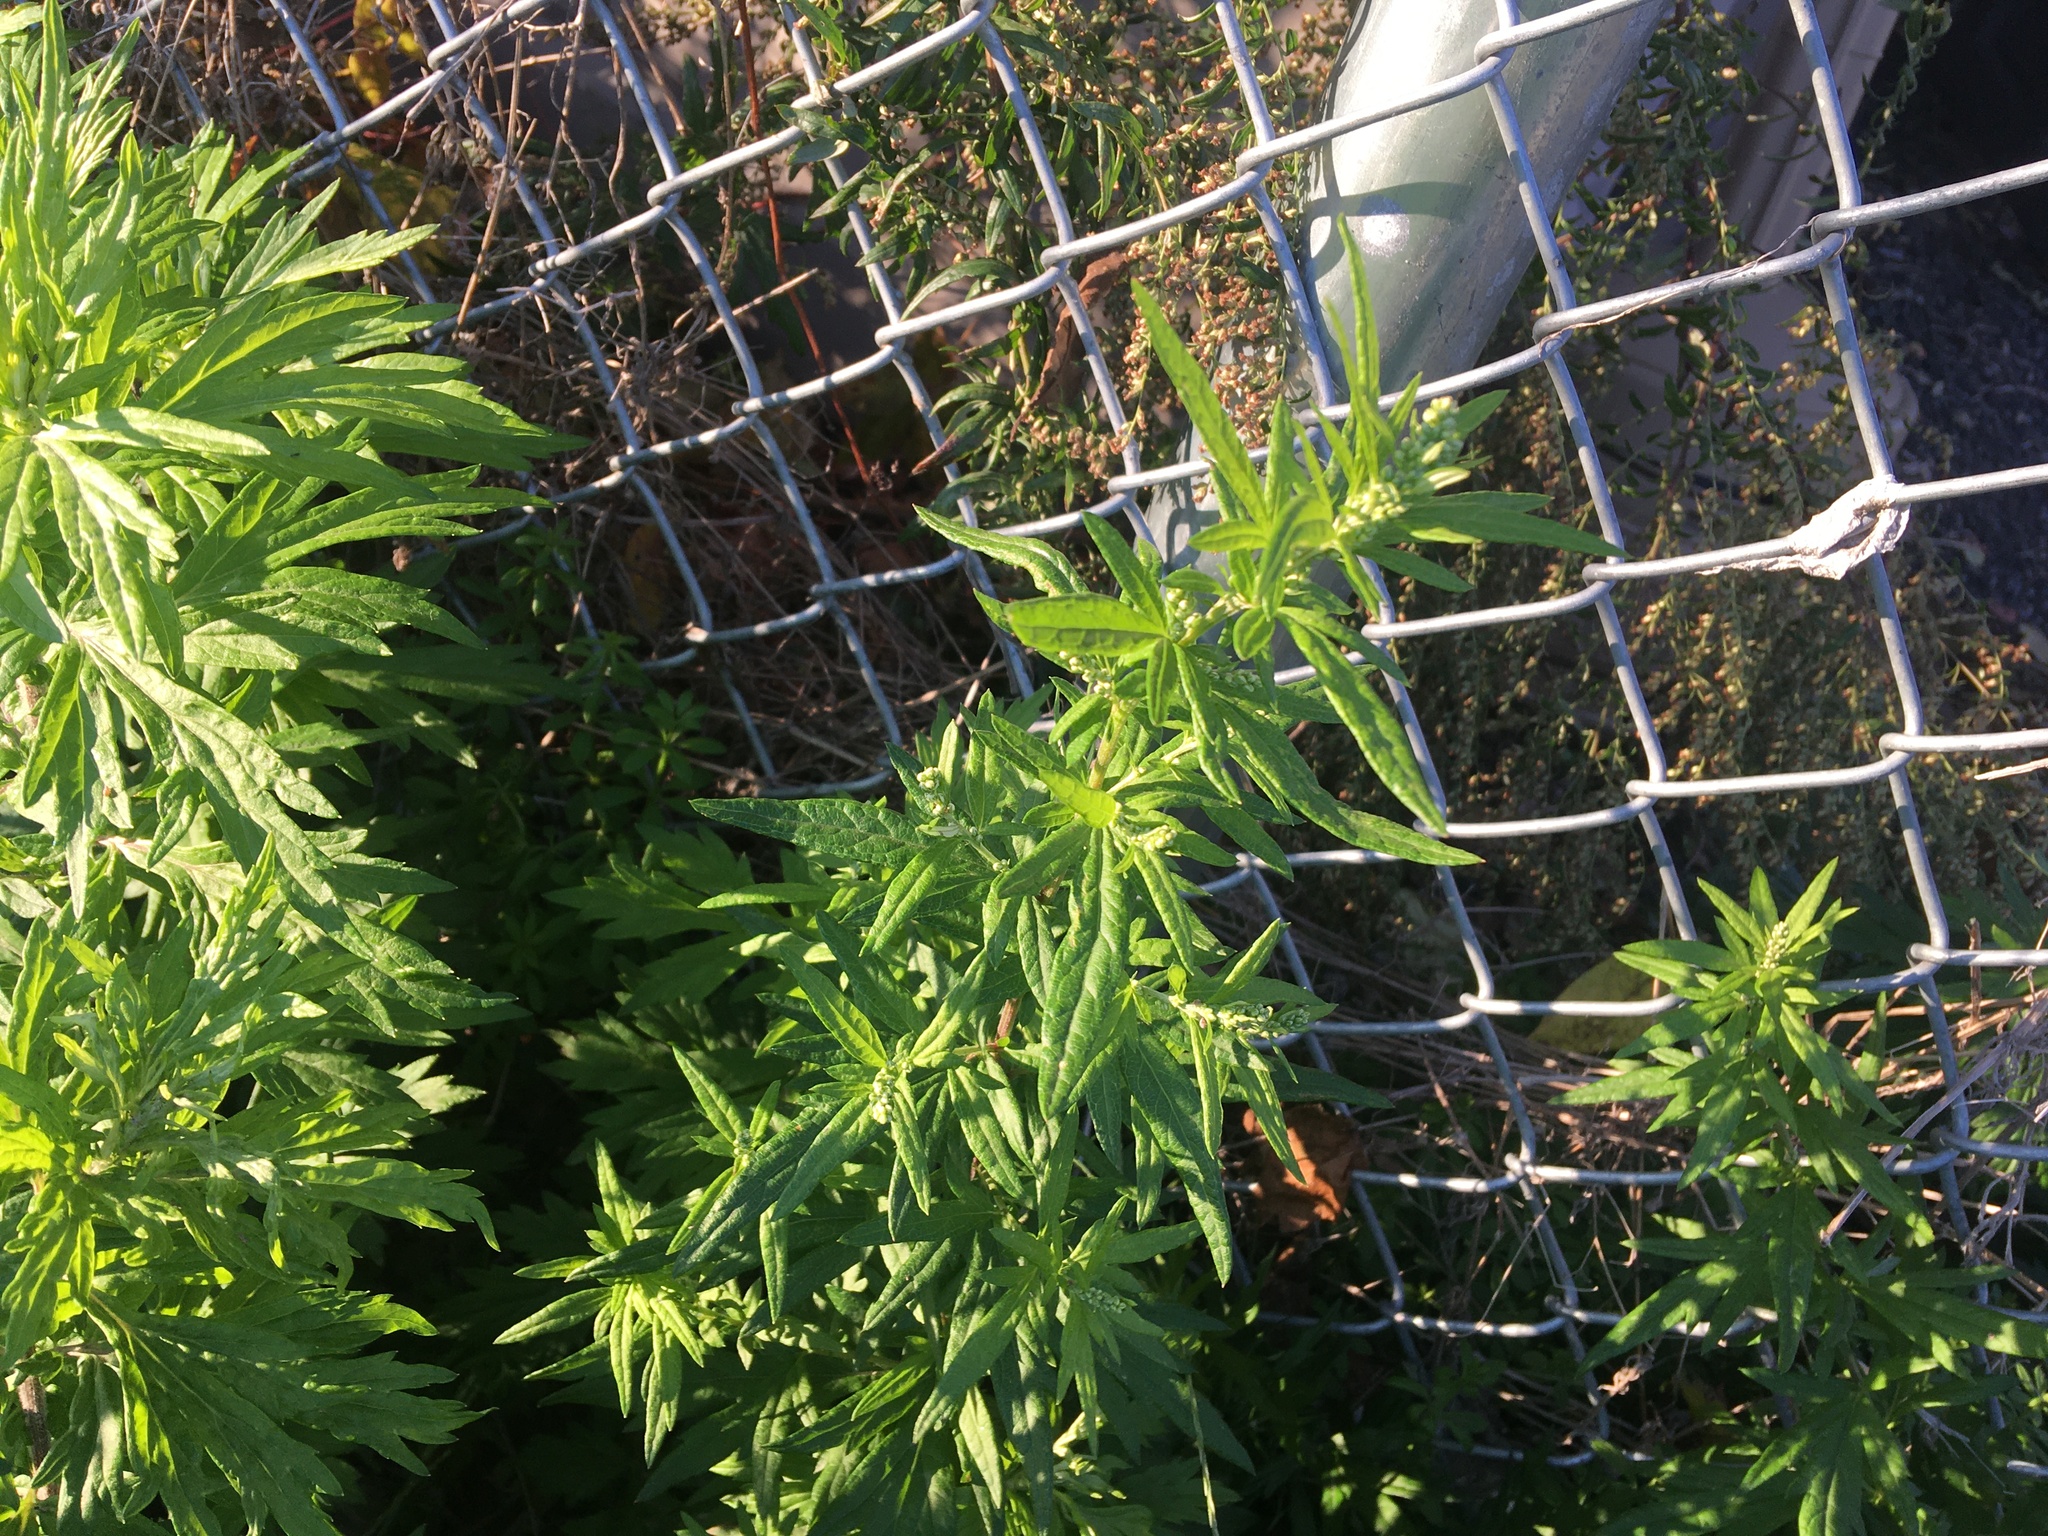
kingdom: Plantae
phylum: Tracheophyta
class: Magnoliopsida
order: Asterales
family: Asteraceae
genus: Artemisia
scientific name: Artemisia vulgaris
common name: Mugwort
